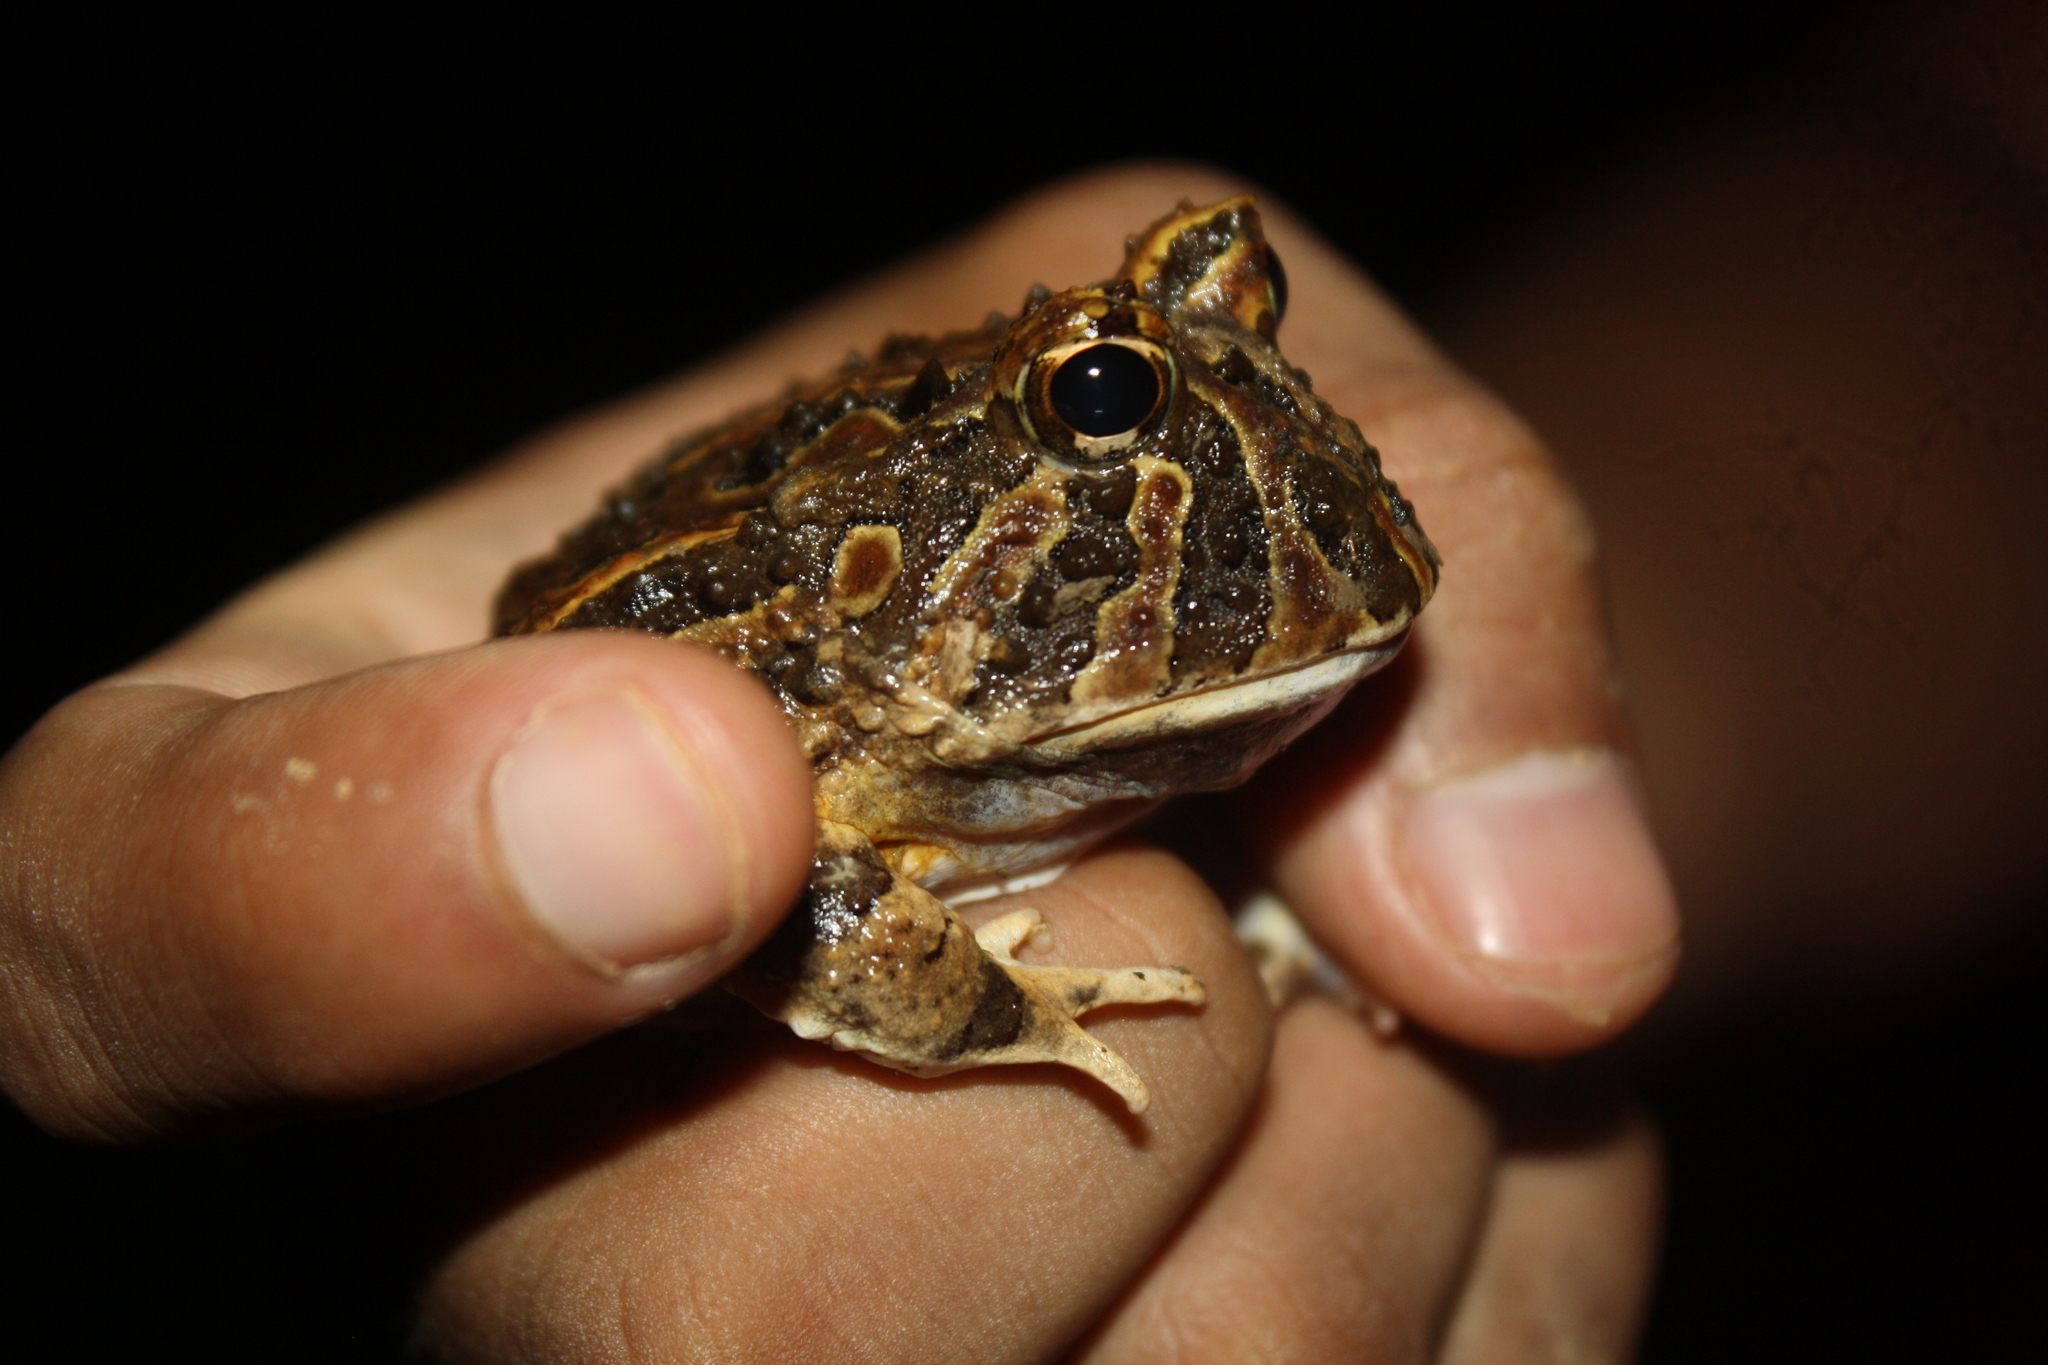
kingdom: Animalia
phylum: Chordata
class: Amphibia
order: Anura
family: Ceratophryidae
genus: Ceratophrys
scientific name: Ceratophrys calcarata
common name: Venezuelan horned frog
